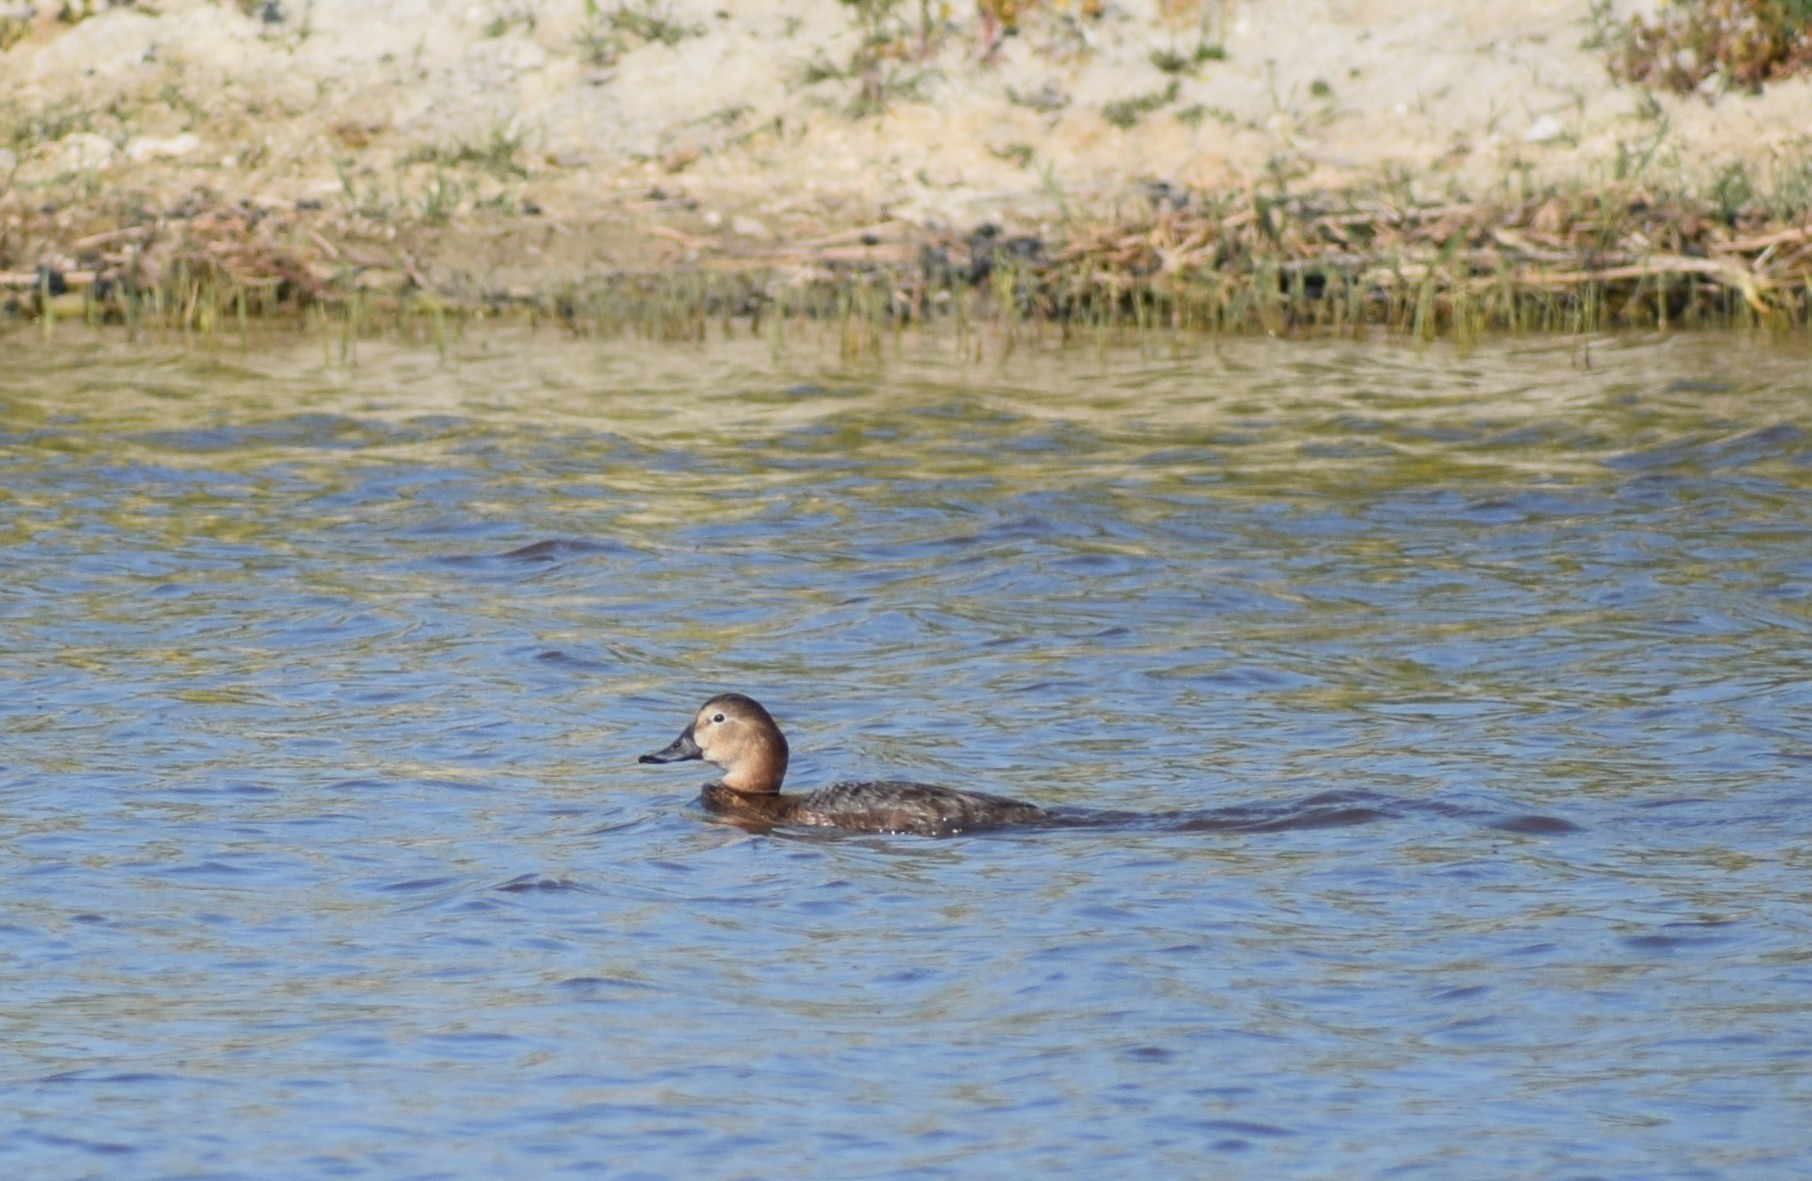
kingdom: Animalia
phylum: Chordata
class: Aves
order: Anseriformes
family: Anatidae
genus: Aythya
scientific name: Aythya ferina
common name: Common pochard
